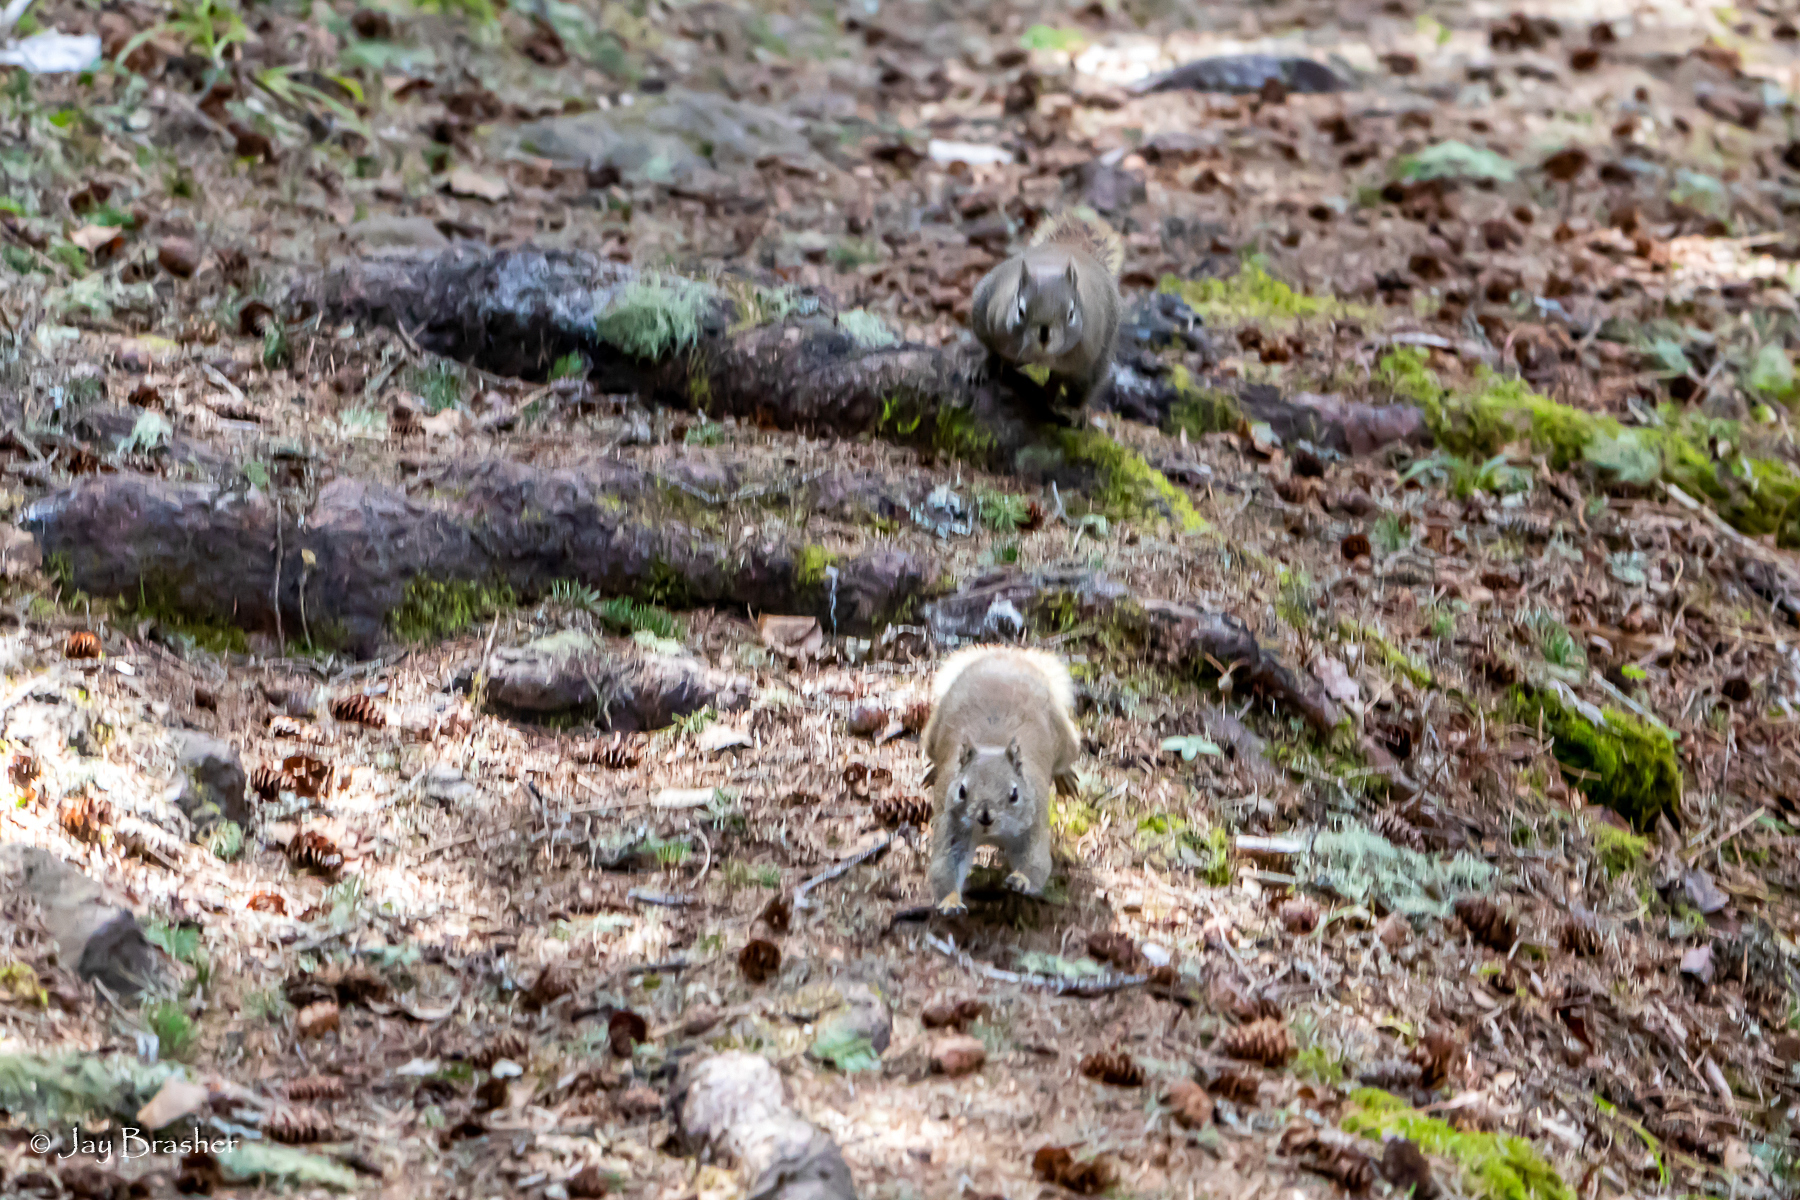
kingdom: Animalia
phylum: Chordata
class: Mammalia
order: Rodentia
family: Sciuridae
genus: Tamiasciurus
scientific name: Tamiasciurus hudsonicus
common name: Red squirrel
